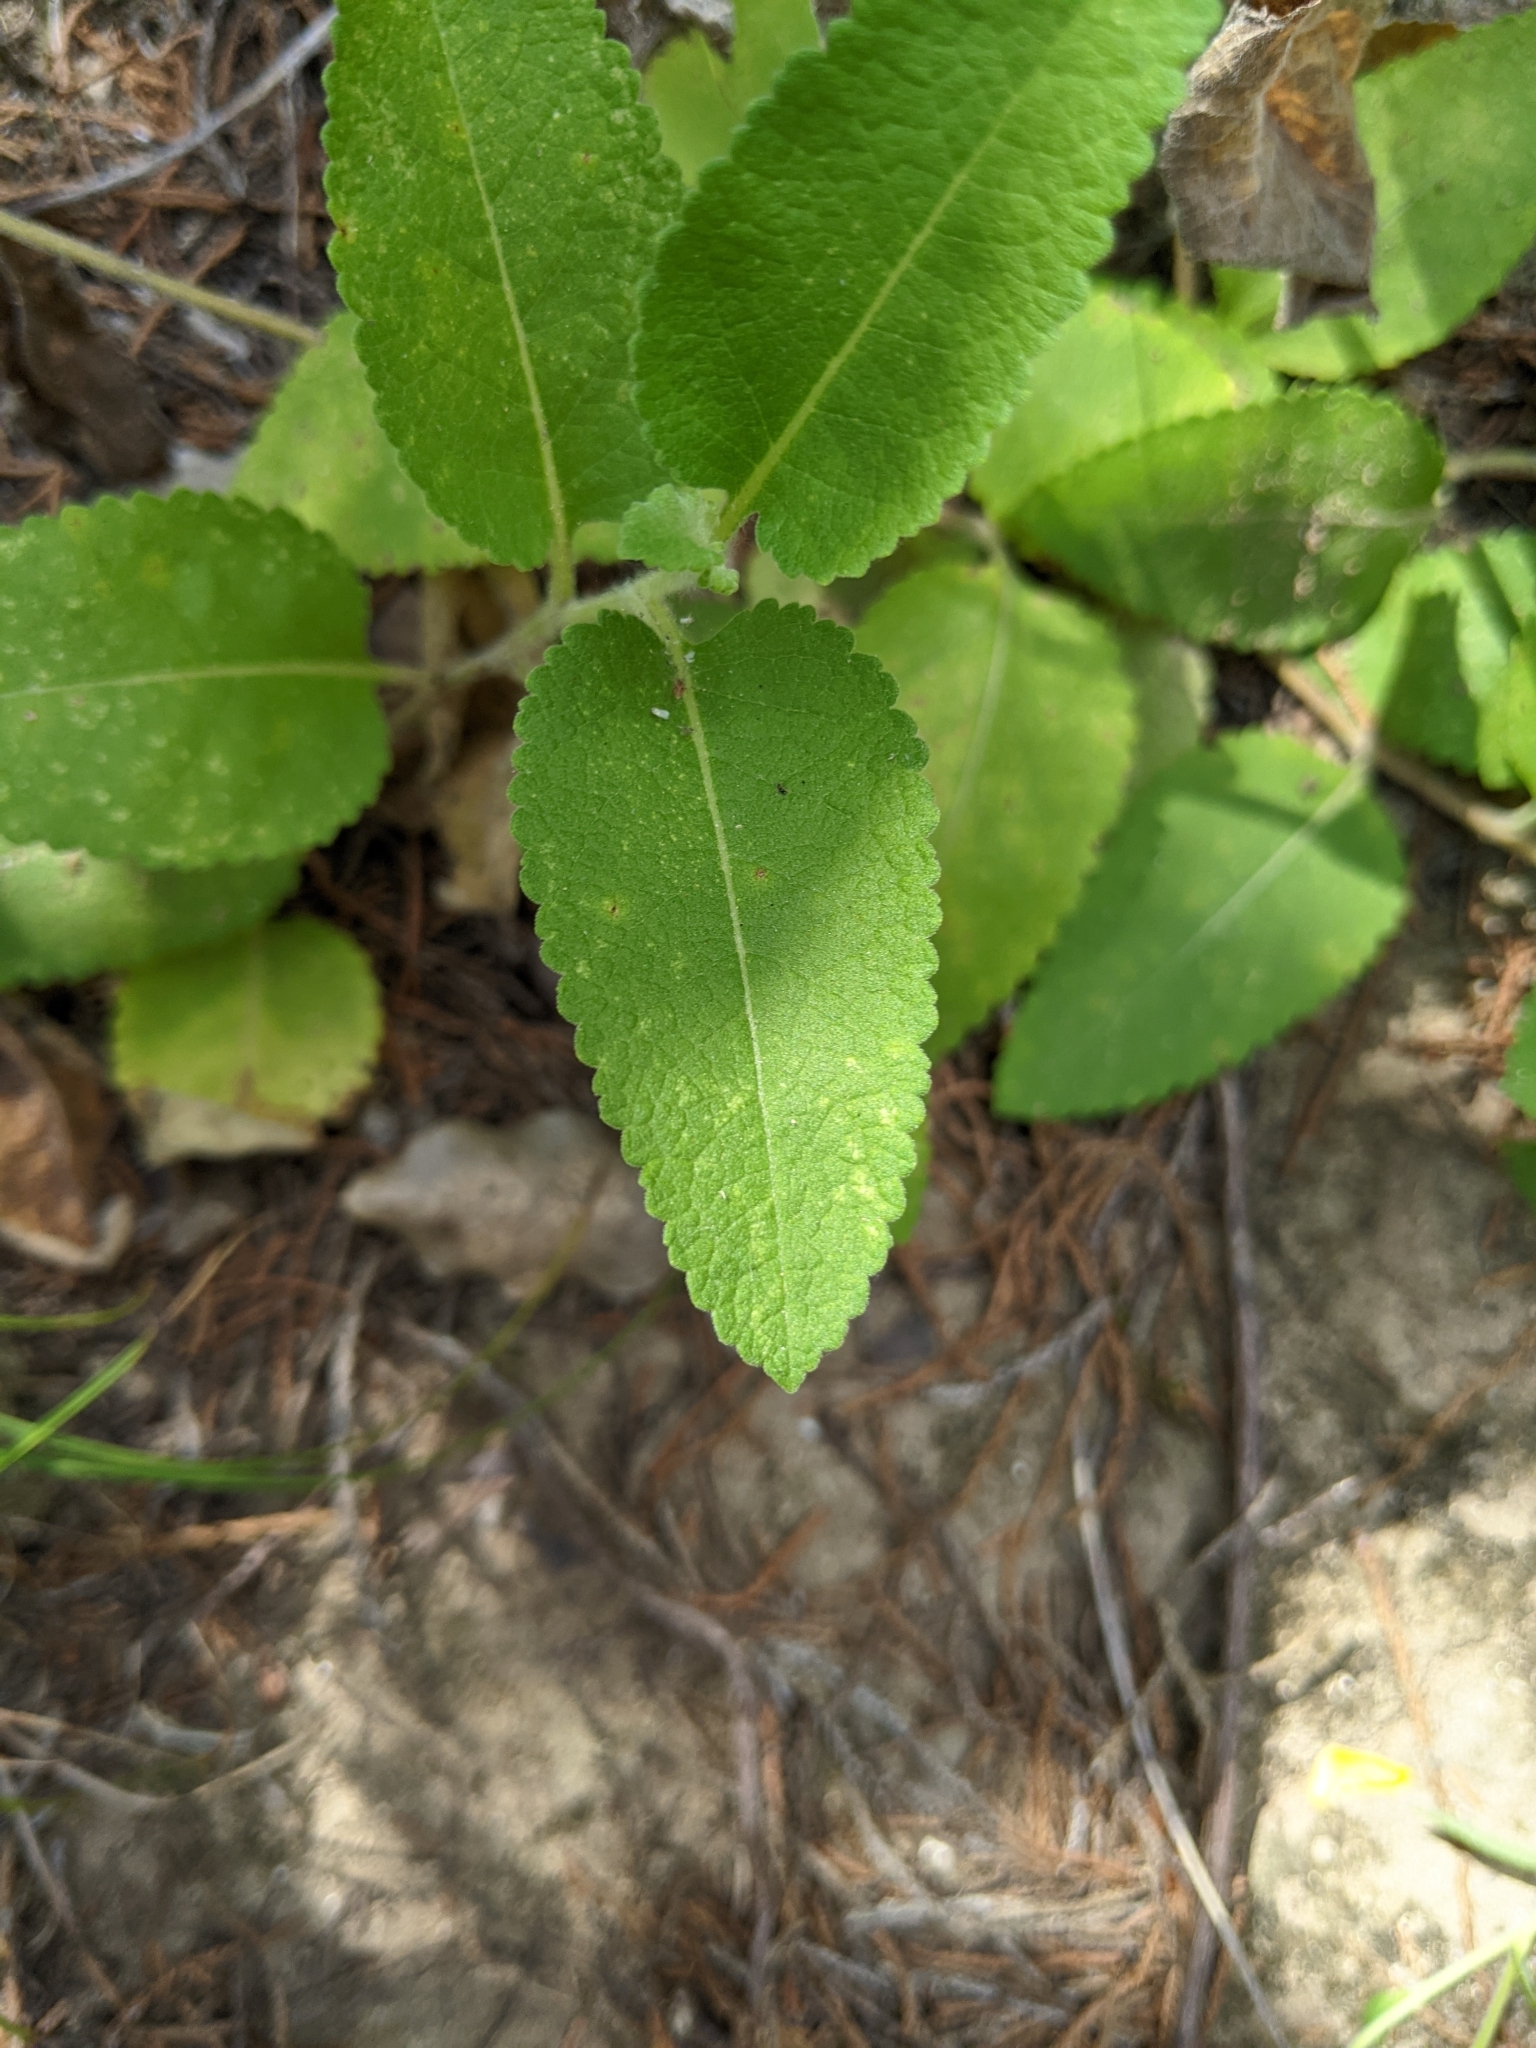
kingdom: Plantae
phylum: Tracheophyta
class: Magnoliopsida
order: Asterales
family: Asteraceae
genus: Berlandiera
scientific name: Berlandiera betonicifolia
